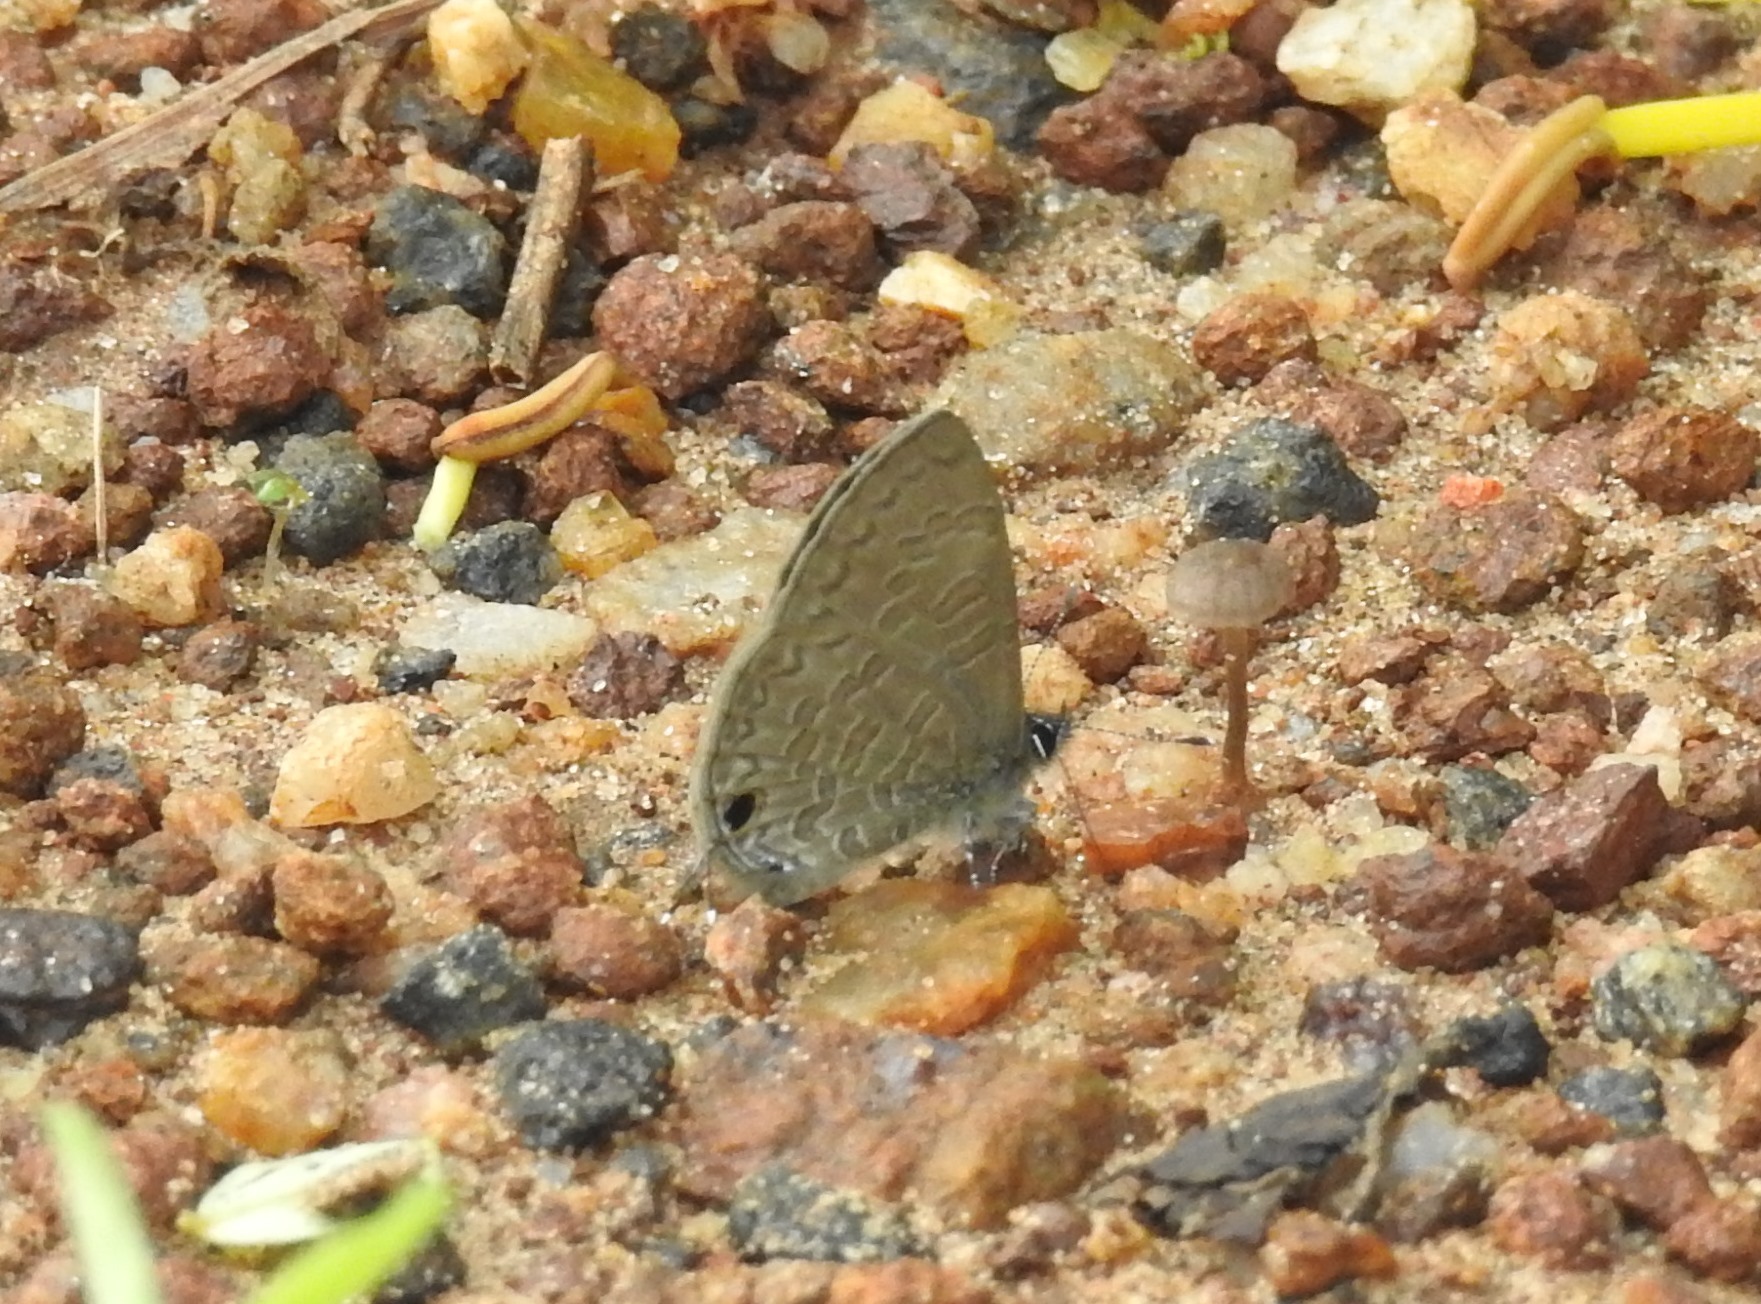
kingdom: Animalia
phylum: Arthropoda
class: Insecta
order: Lepidoptera
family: Lycaenidae
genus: Prosotas
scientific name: Prosotas dubiosa
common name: Tailless lineblue
